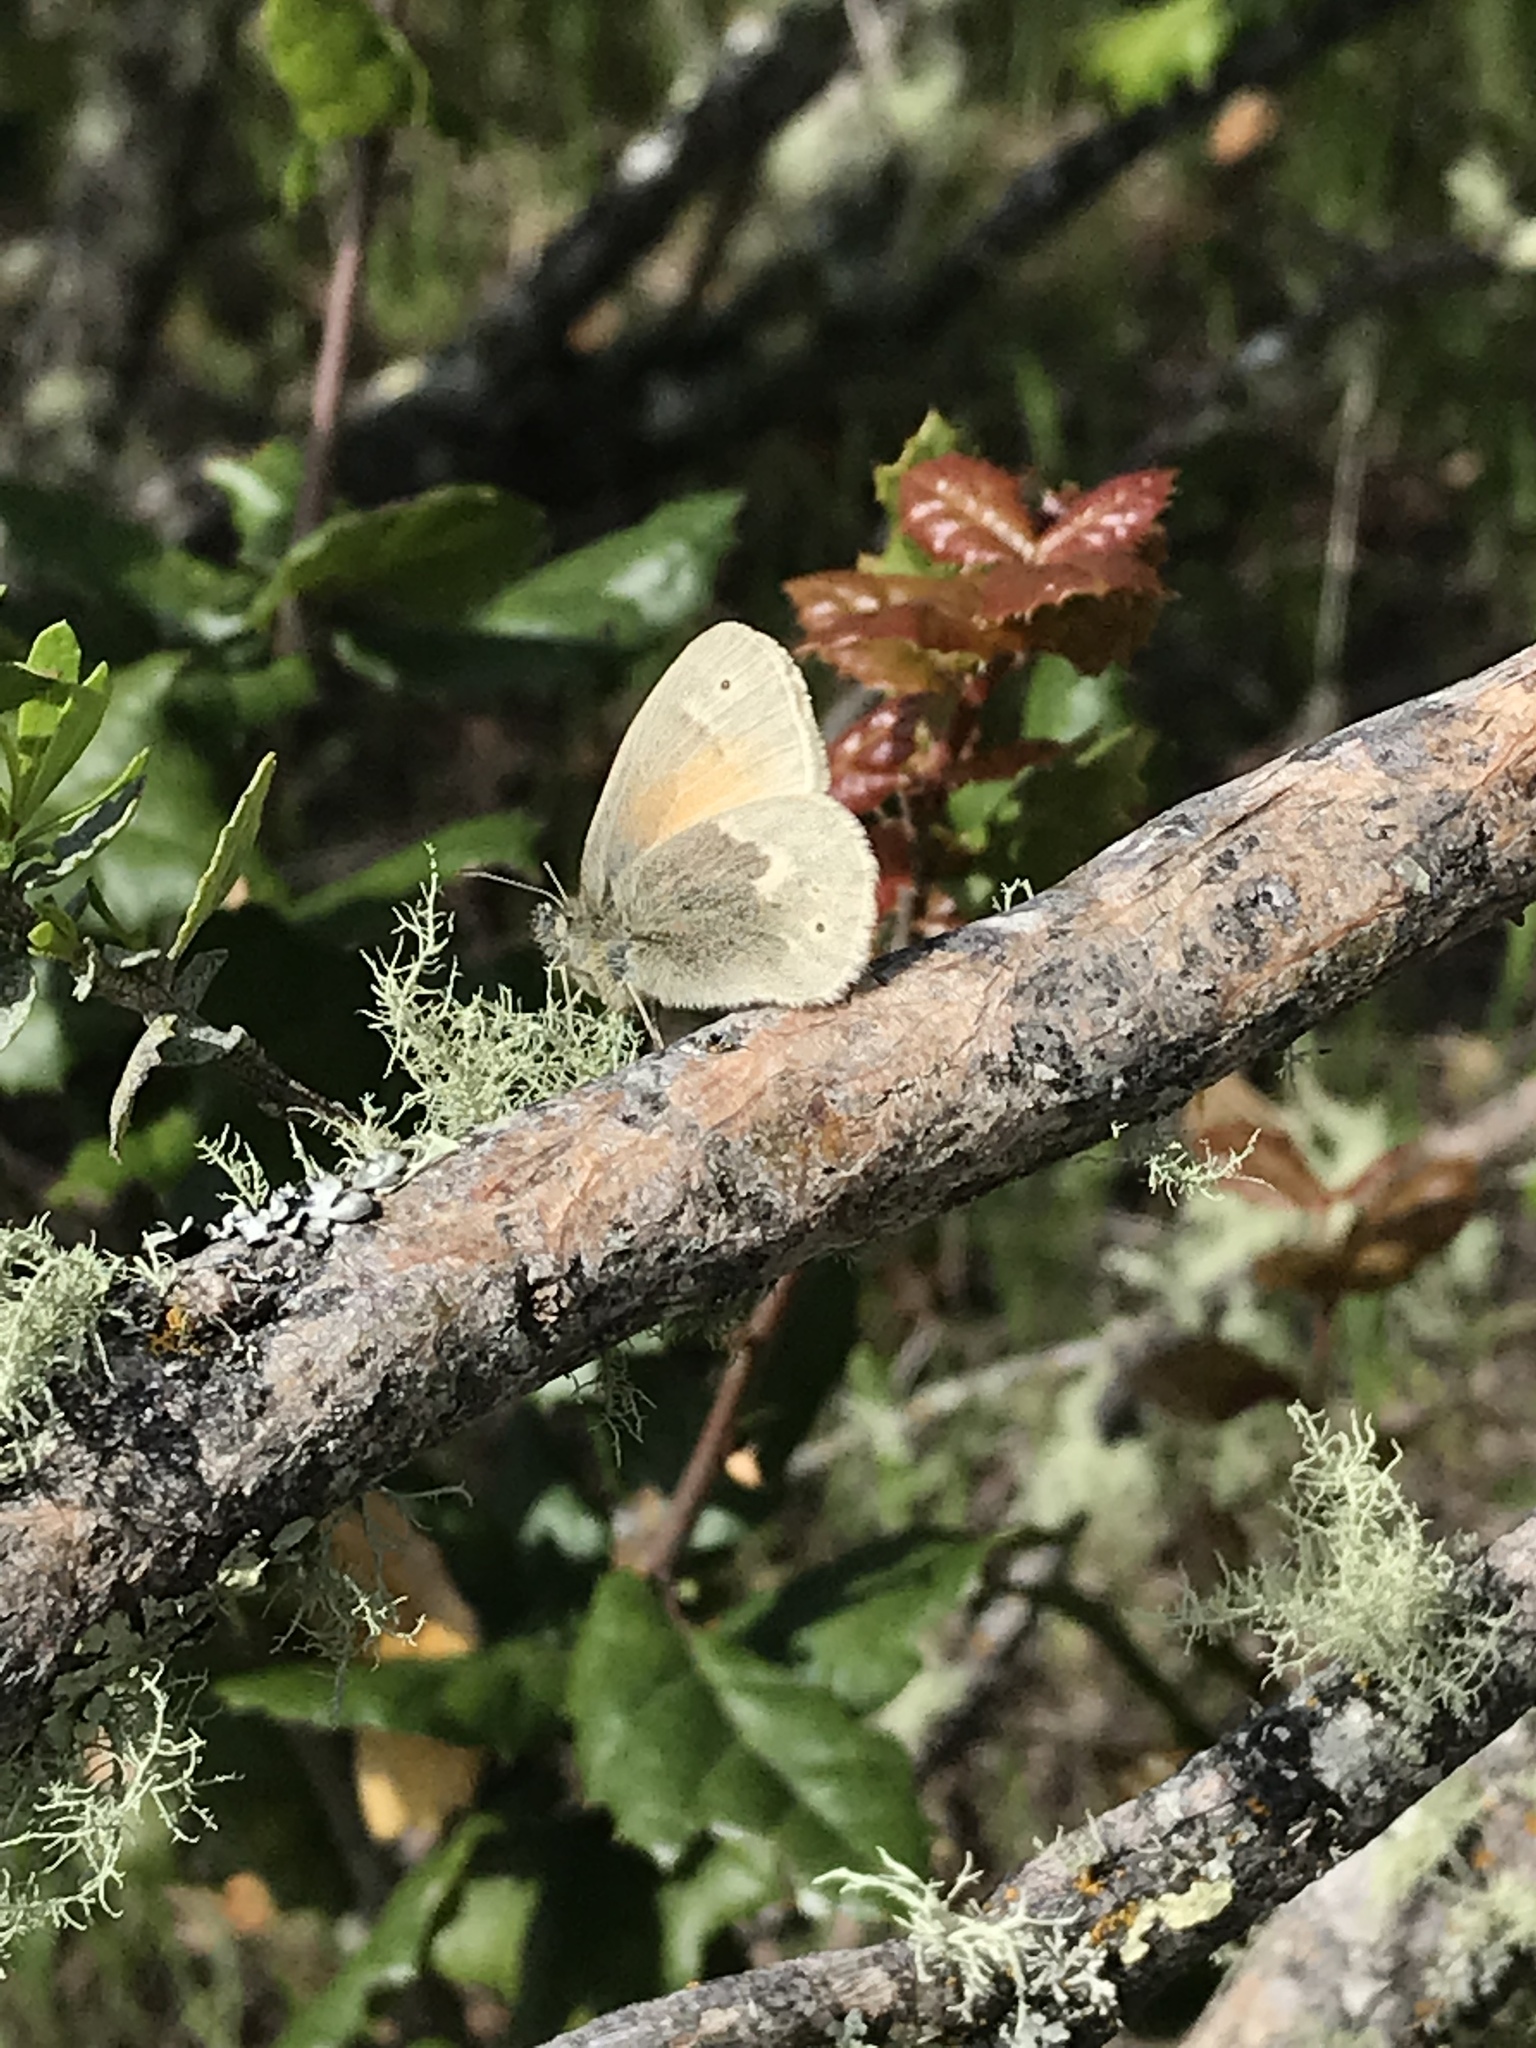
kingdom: Animalia
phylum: Arthropoda
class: Insecta
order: Lepidoptera
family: Nymphalidae
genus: Coenonympha
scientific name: Coenonympha california
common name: Common ringlet
